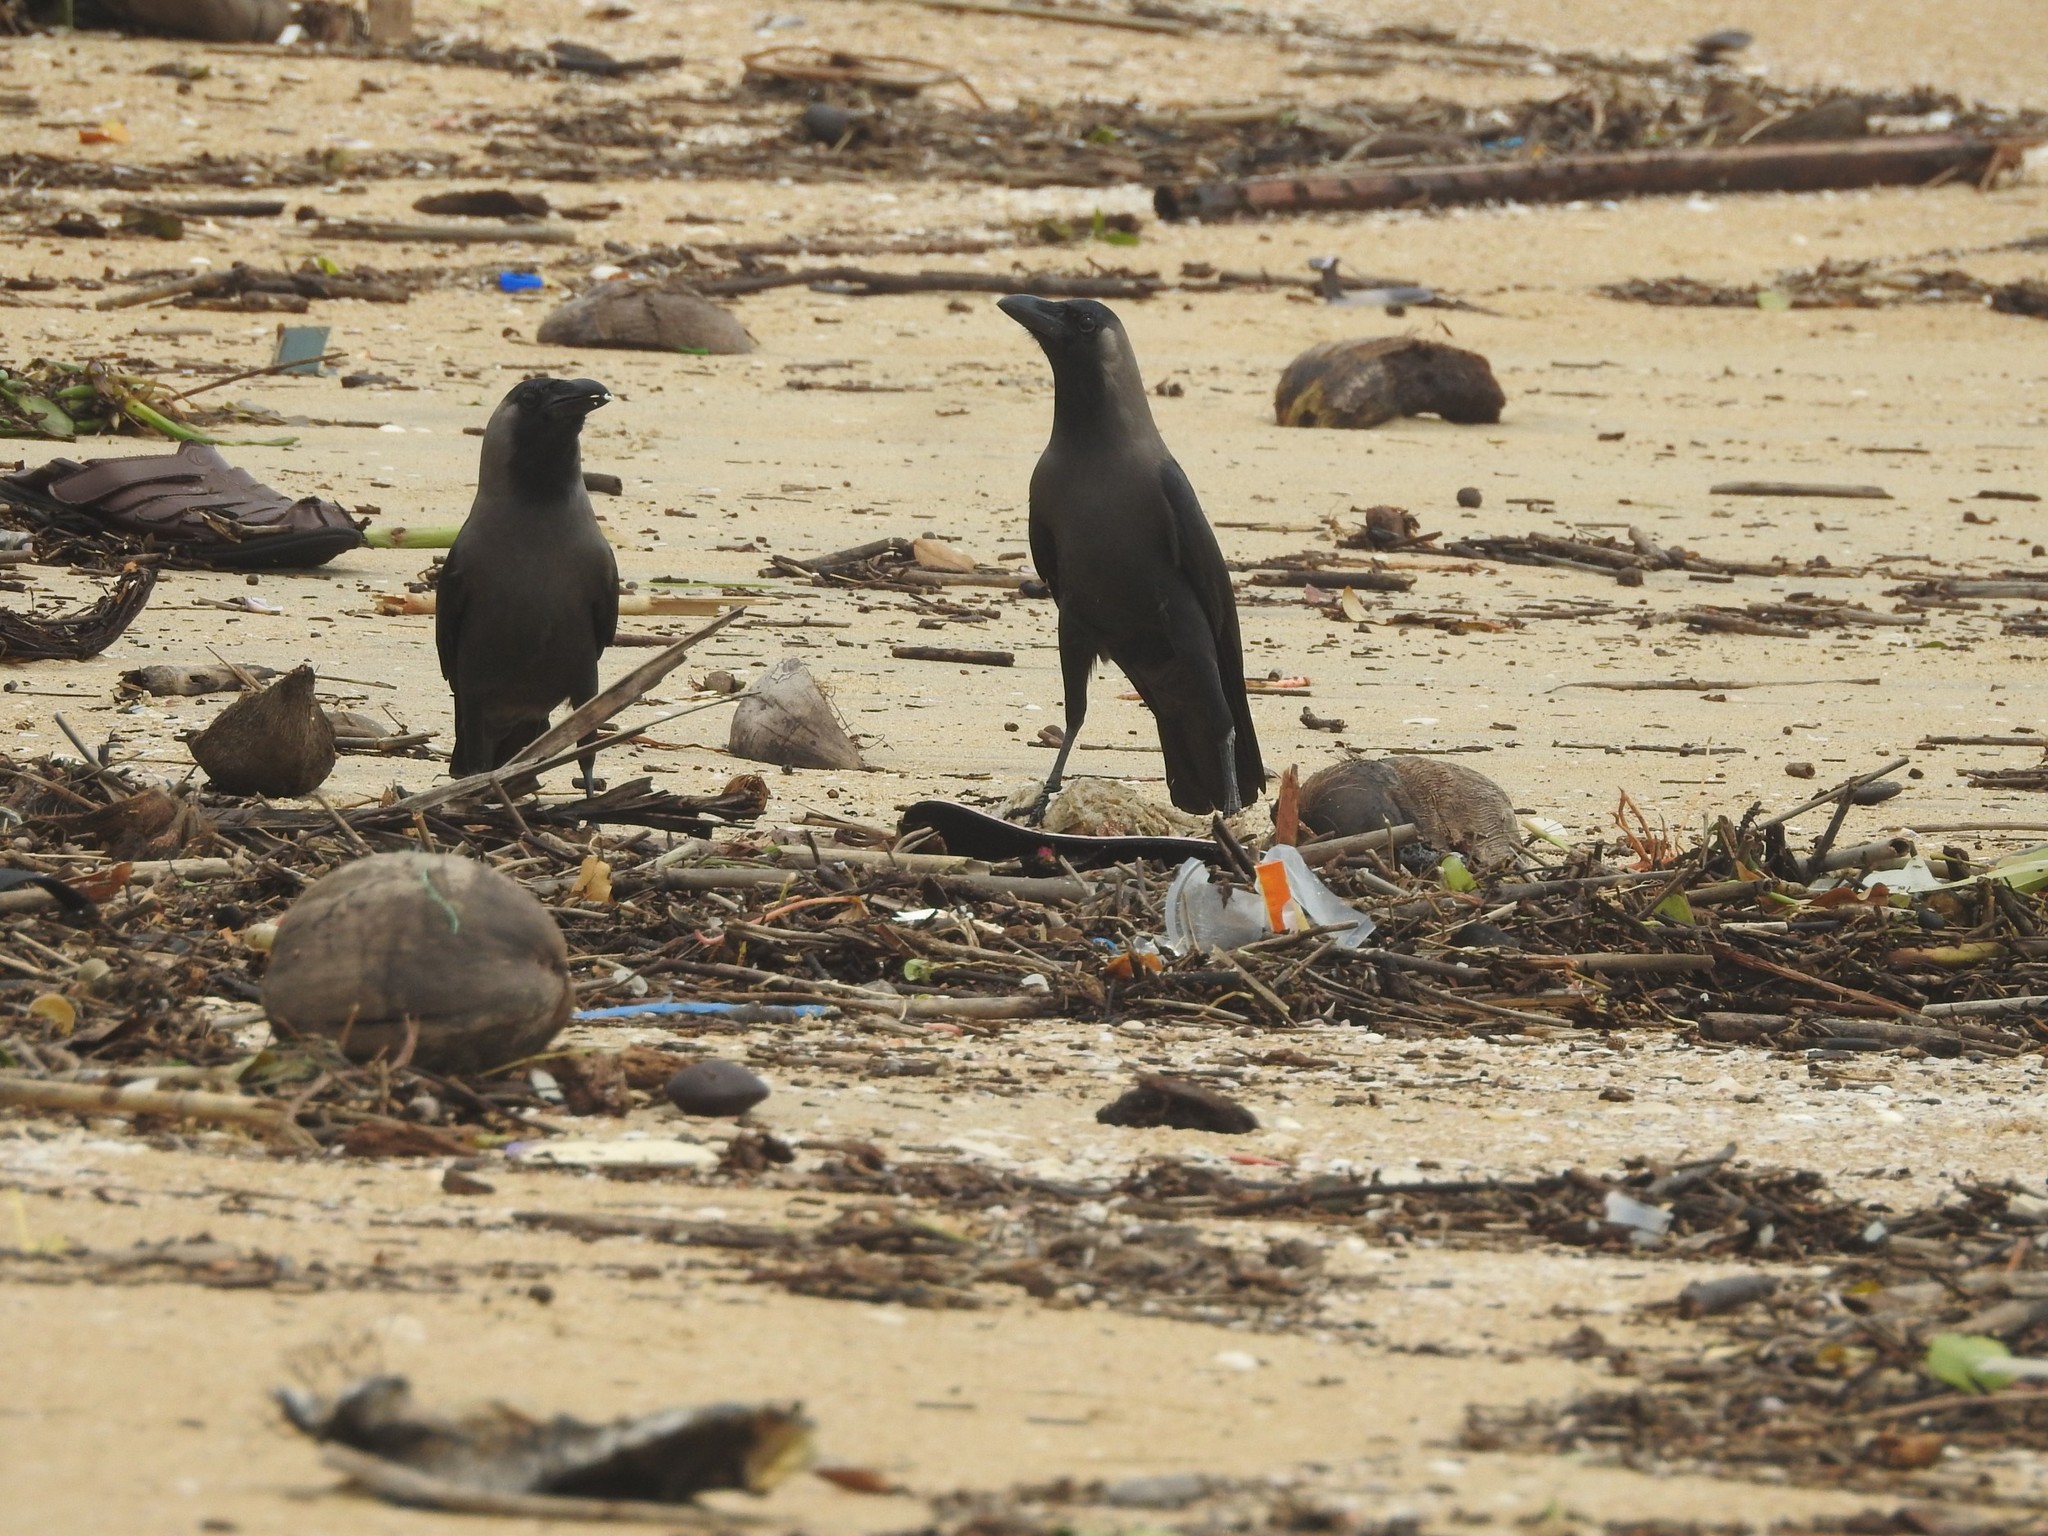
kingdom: Animalia
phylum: Chordata
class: Aves
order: Passeriformes
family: Corvidae
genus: Corvus
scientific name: Corvus splendens
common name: House crow
